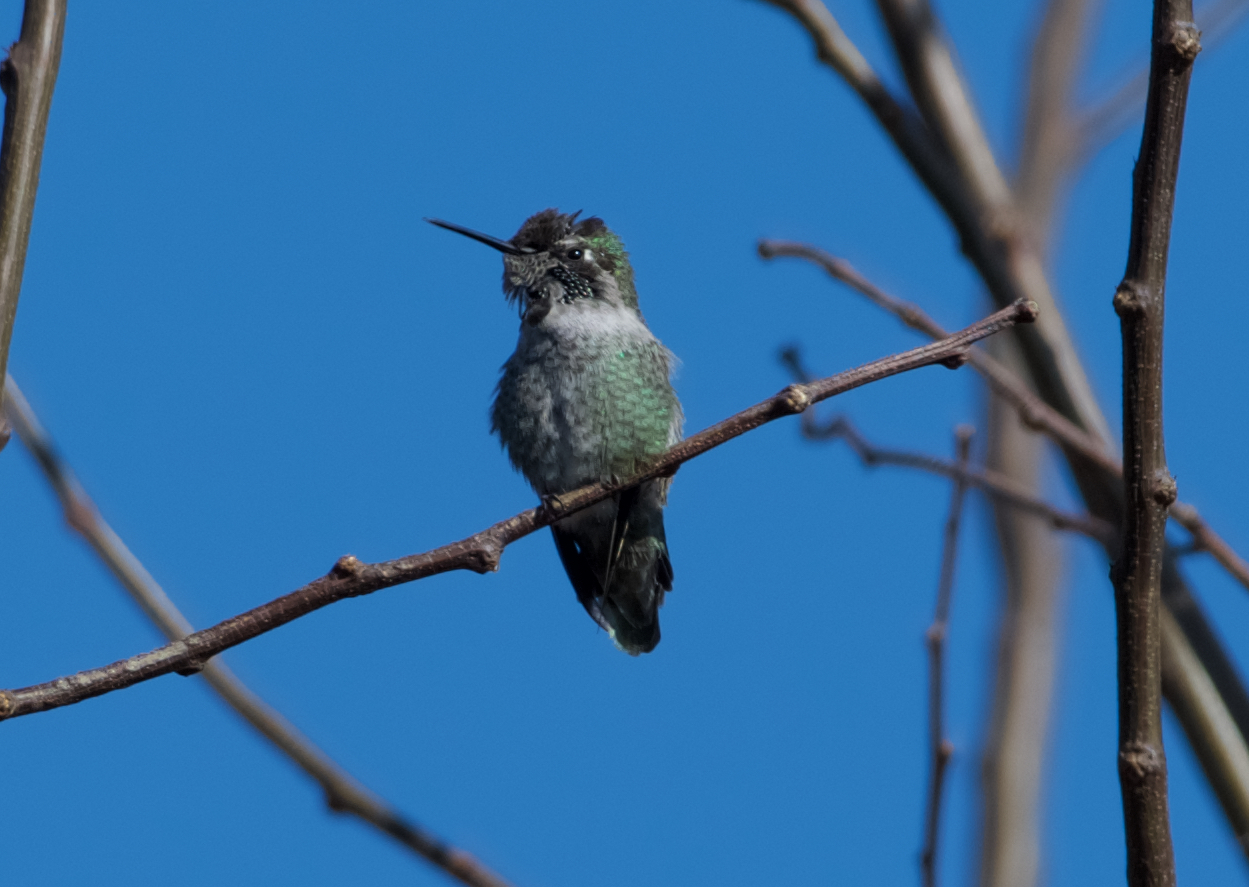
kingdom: Animalia
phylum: Chordata
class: Aves
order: Apodiformes
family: Trochilidae
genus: Calypte
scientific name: Calypte anna
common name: Anna's hummingbird
